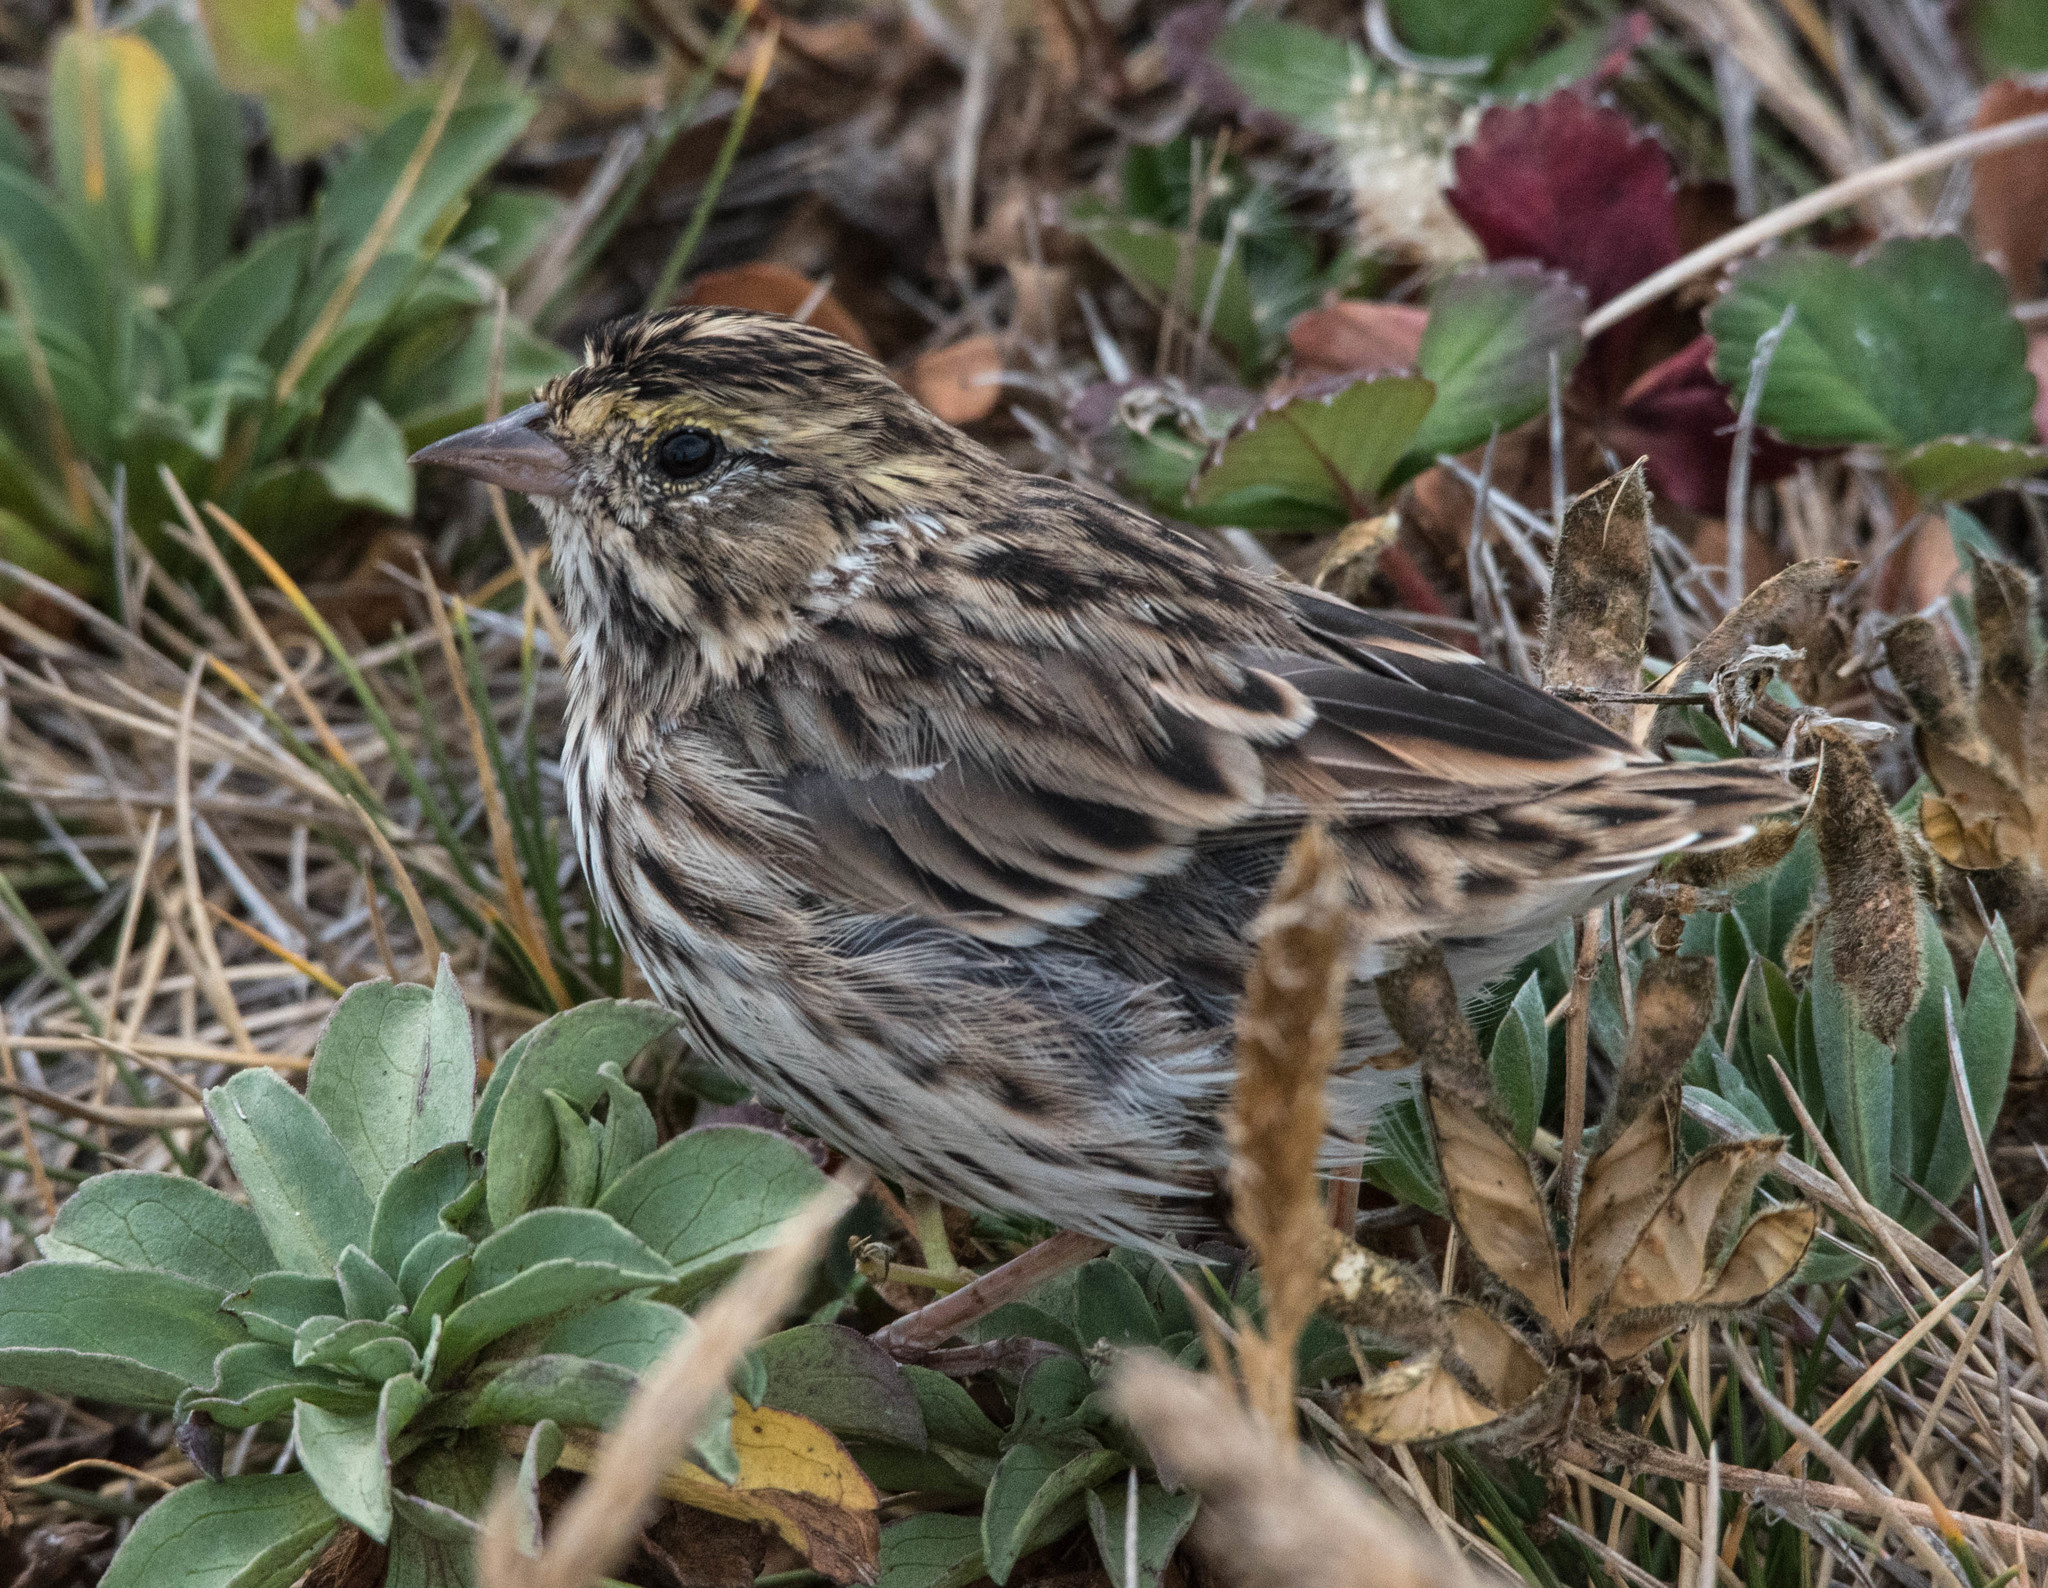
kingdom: Animalia
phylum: Chordata
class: Aves
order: Passeriformes
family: Passerellidae
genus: Passerculus
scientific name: Passerculus sandwichensis
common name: Savannah sparrow
